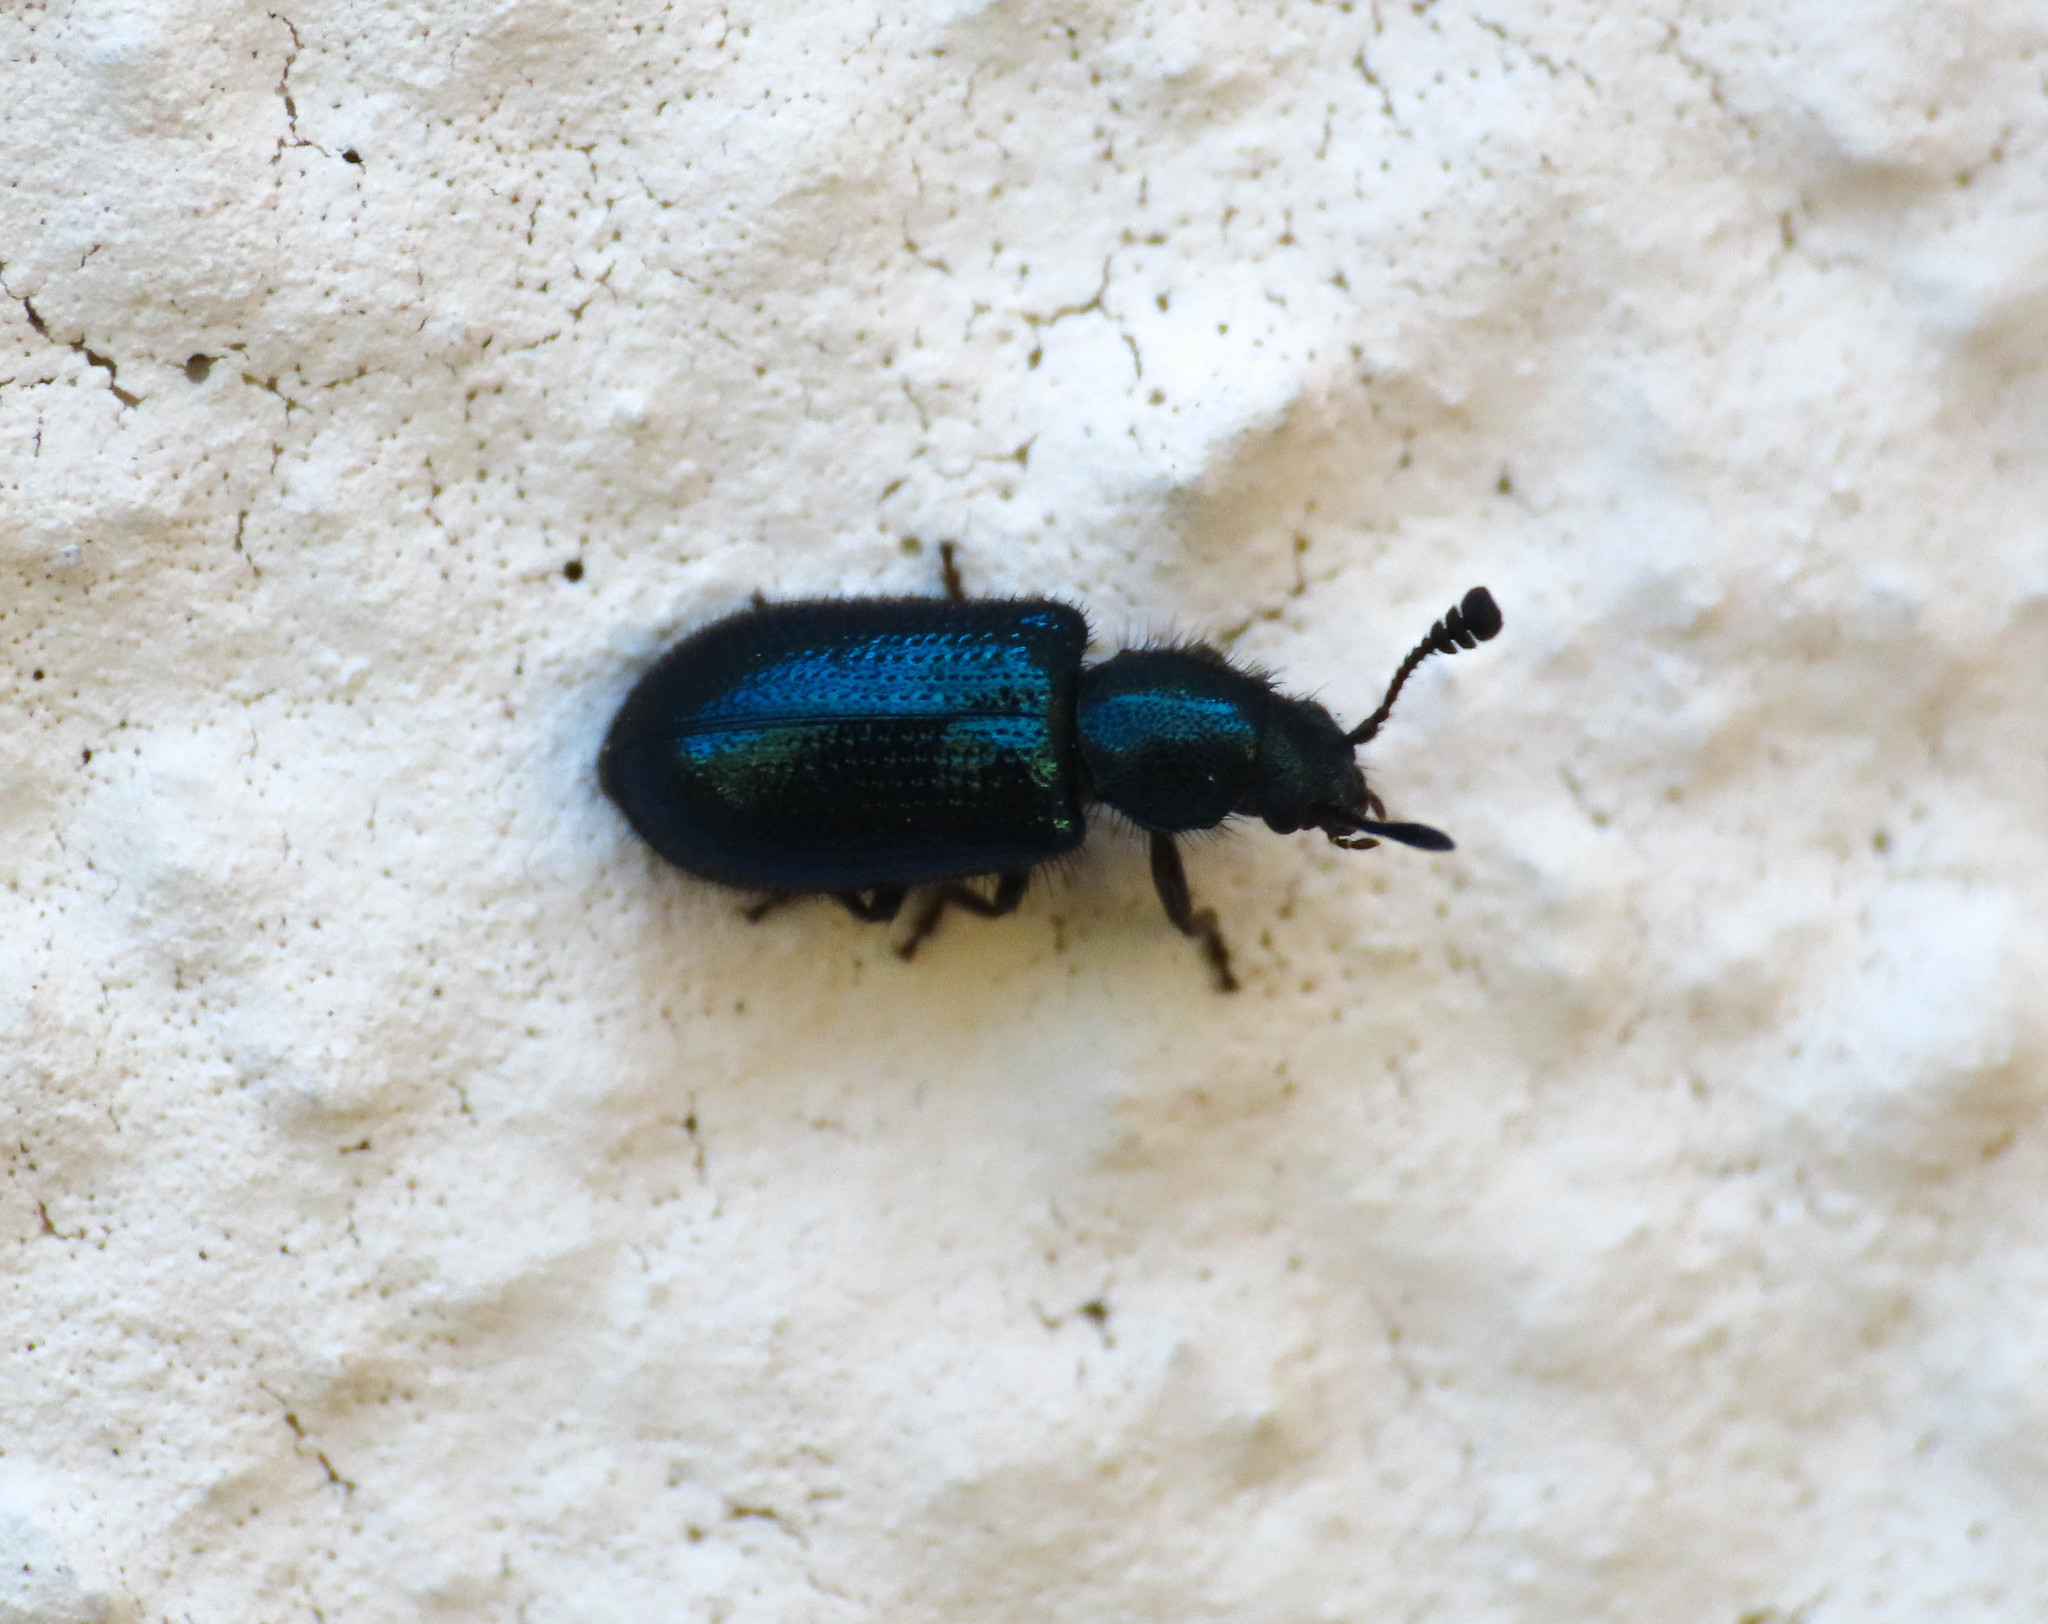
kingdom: Animalia
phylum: Arthropoda
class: Insecta
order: Coleoptera
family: Cleridae
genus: Necrobia
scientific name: Necrobia violacea
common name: Violet checkered beetle
